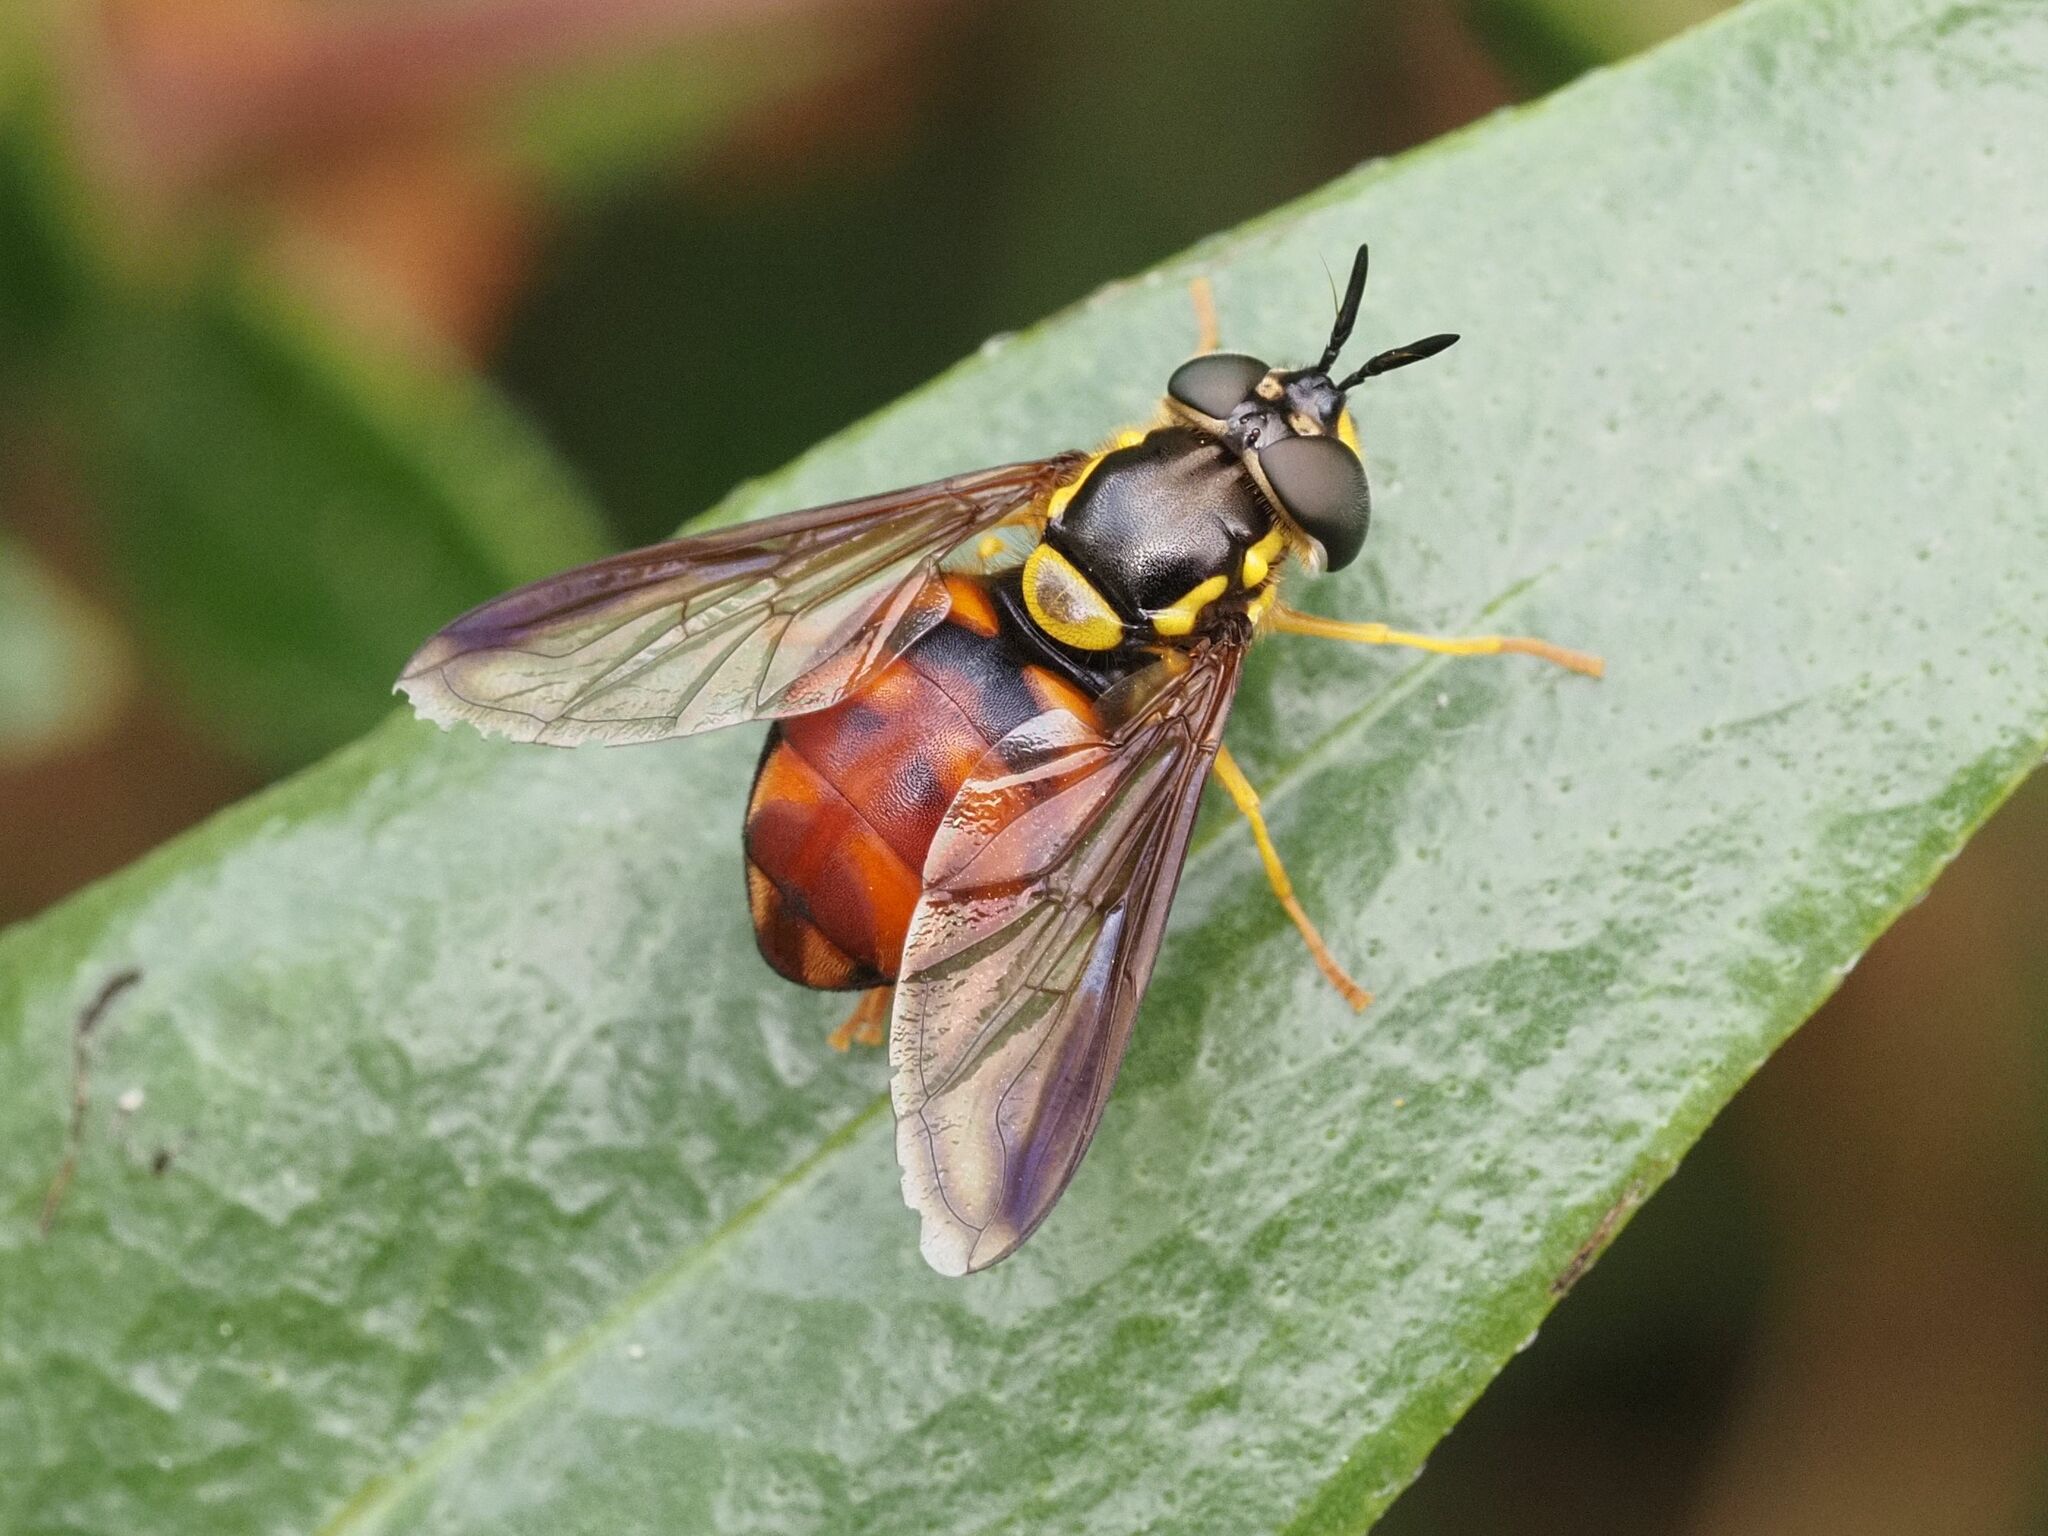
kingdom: Animalia
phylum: Arthropoda
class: Insecta
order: Diptera
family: Syrphidae
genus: Chrysotoxum
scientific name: Chrysotoxum triarcuatum
